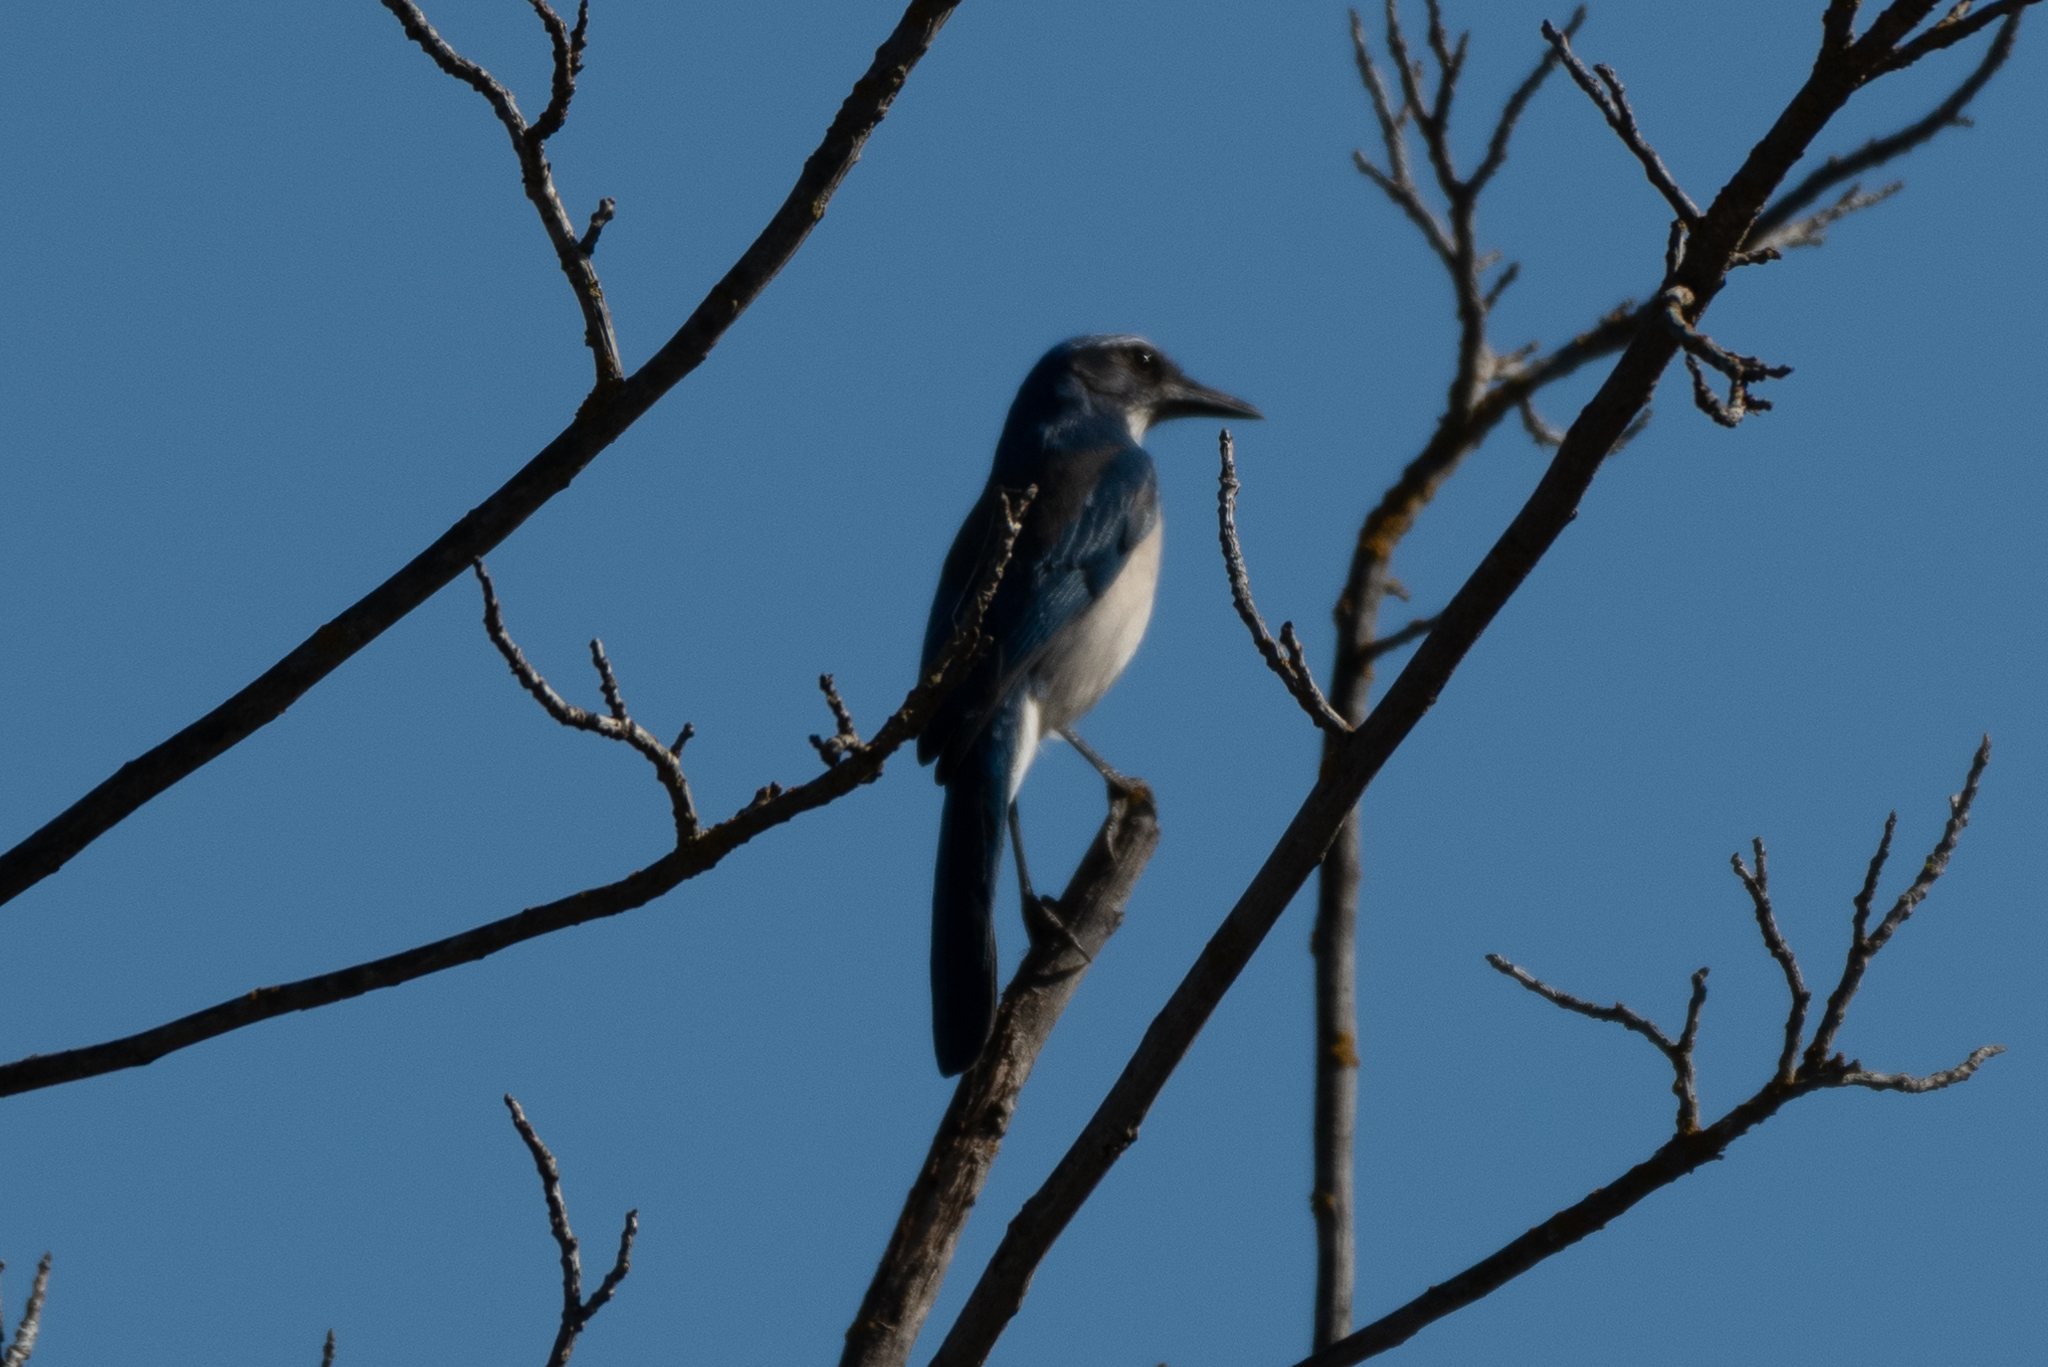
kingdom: Animalia
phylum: Chordata
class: Aves
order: Passeriformes
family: Corvidae
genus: Aphelocoma
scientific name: Aphelocoma californica
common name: California scrub-jay
